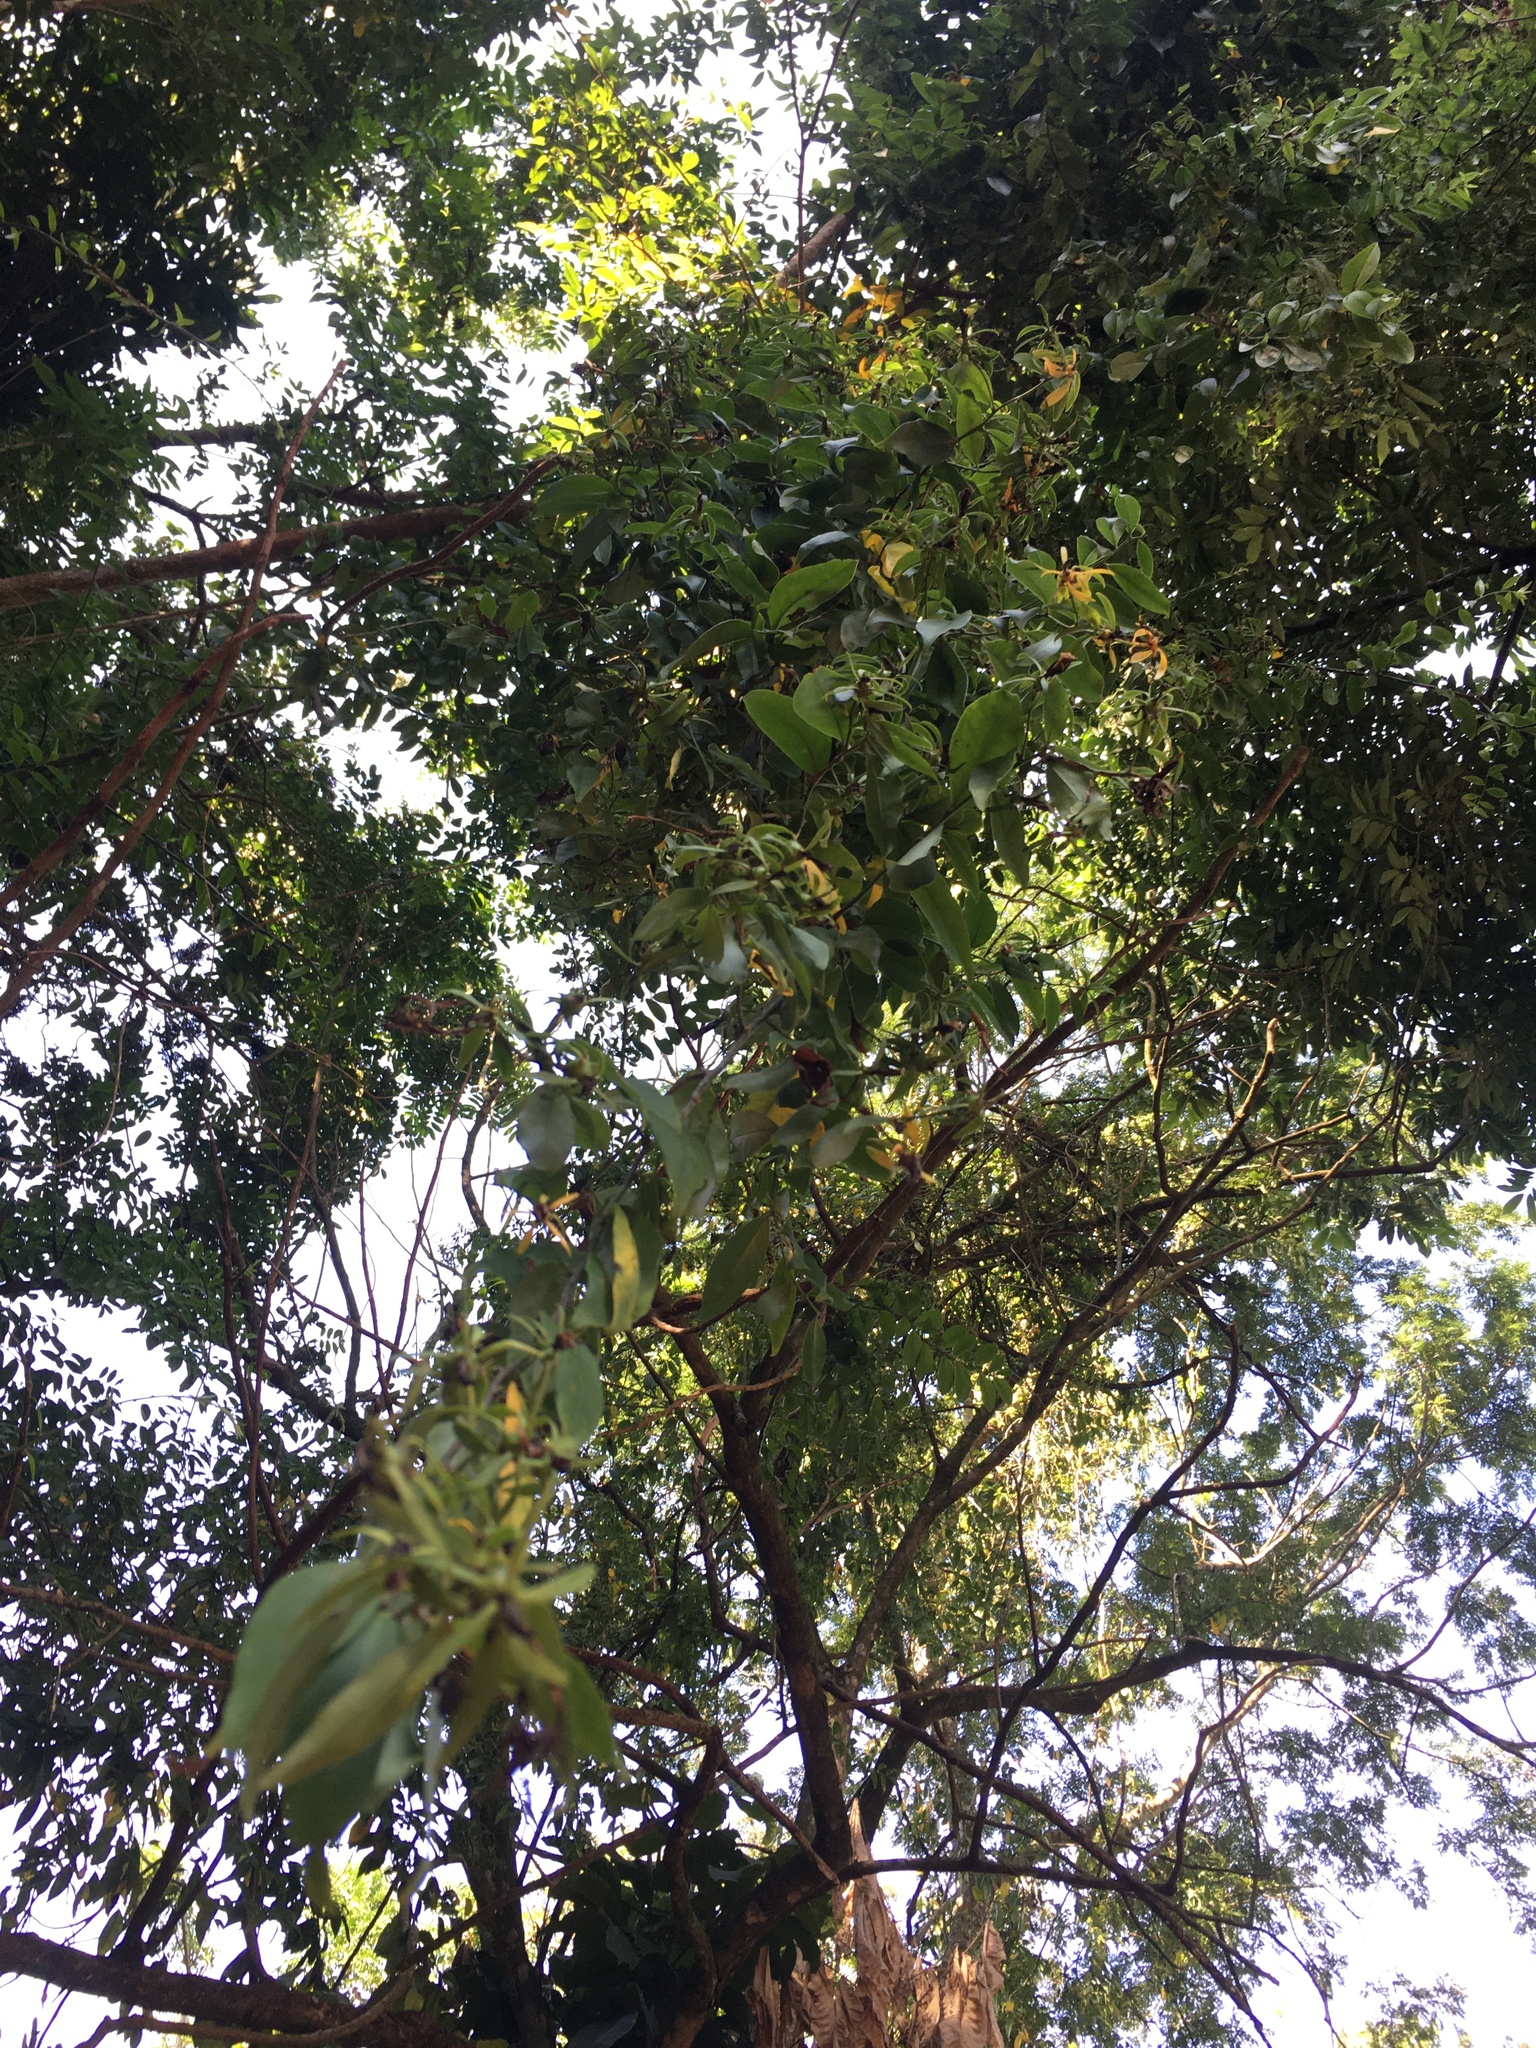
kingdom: Plantae
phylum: Tracheophyta
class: Magnoliopsida
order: Caryophyllales
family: Cactaceae
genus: Pereskia
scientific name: Pereskia aculeata
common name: Barbados gooseberry
